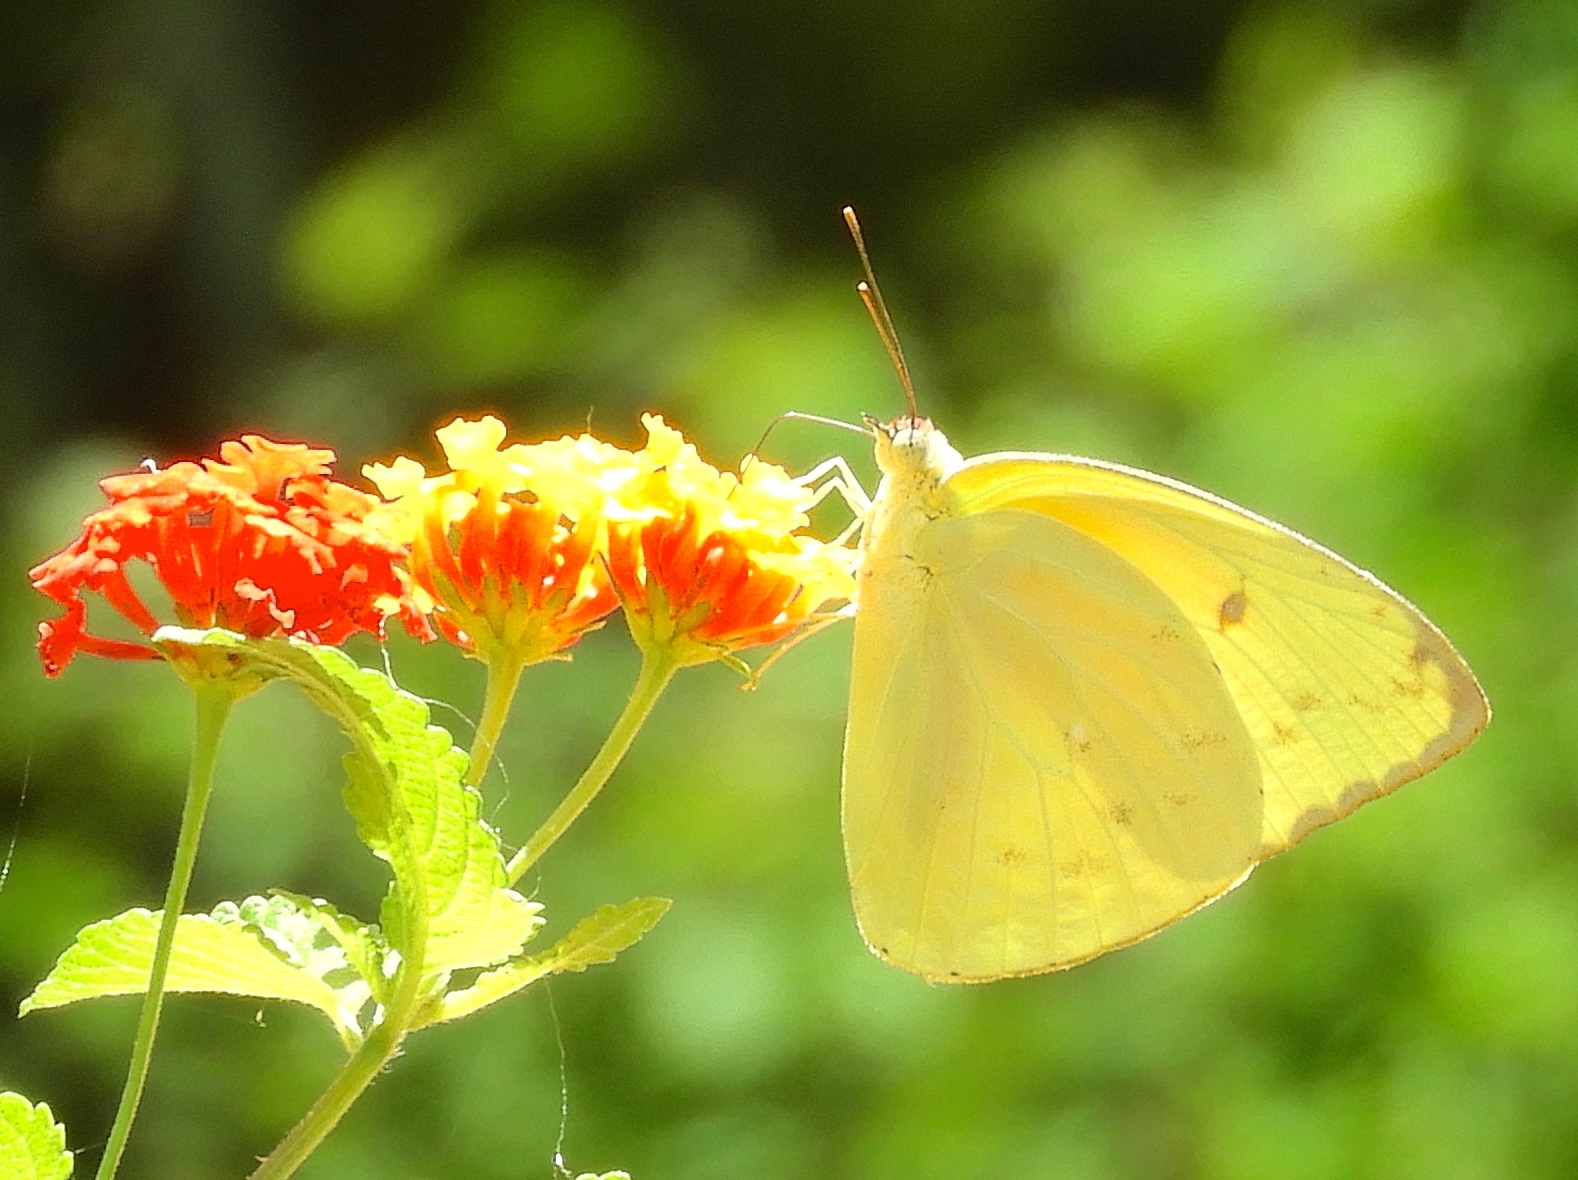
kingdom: Animalia
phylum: Arthropoda
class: Insecta
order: Lepidoptera
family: Pieridae
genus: Aphrissa
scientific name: Aphrissa statira
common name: Statira sulphur
